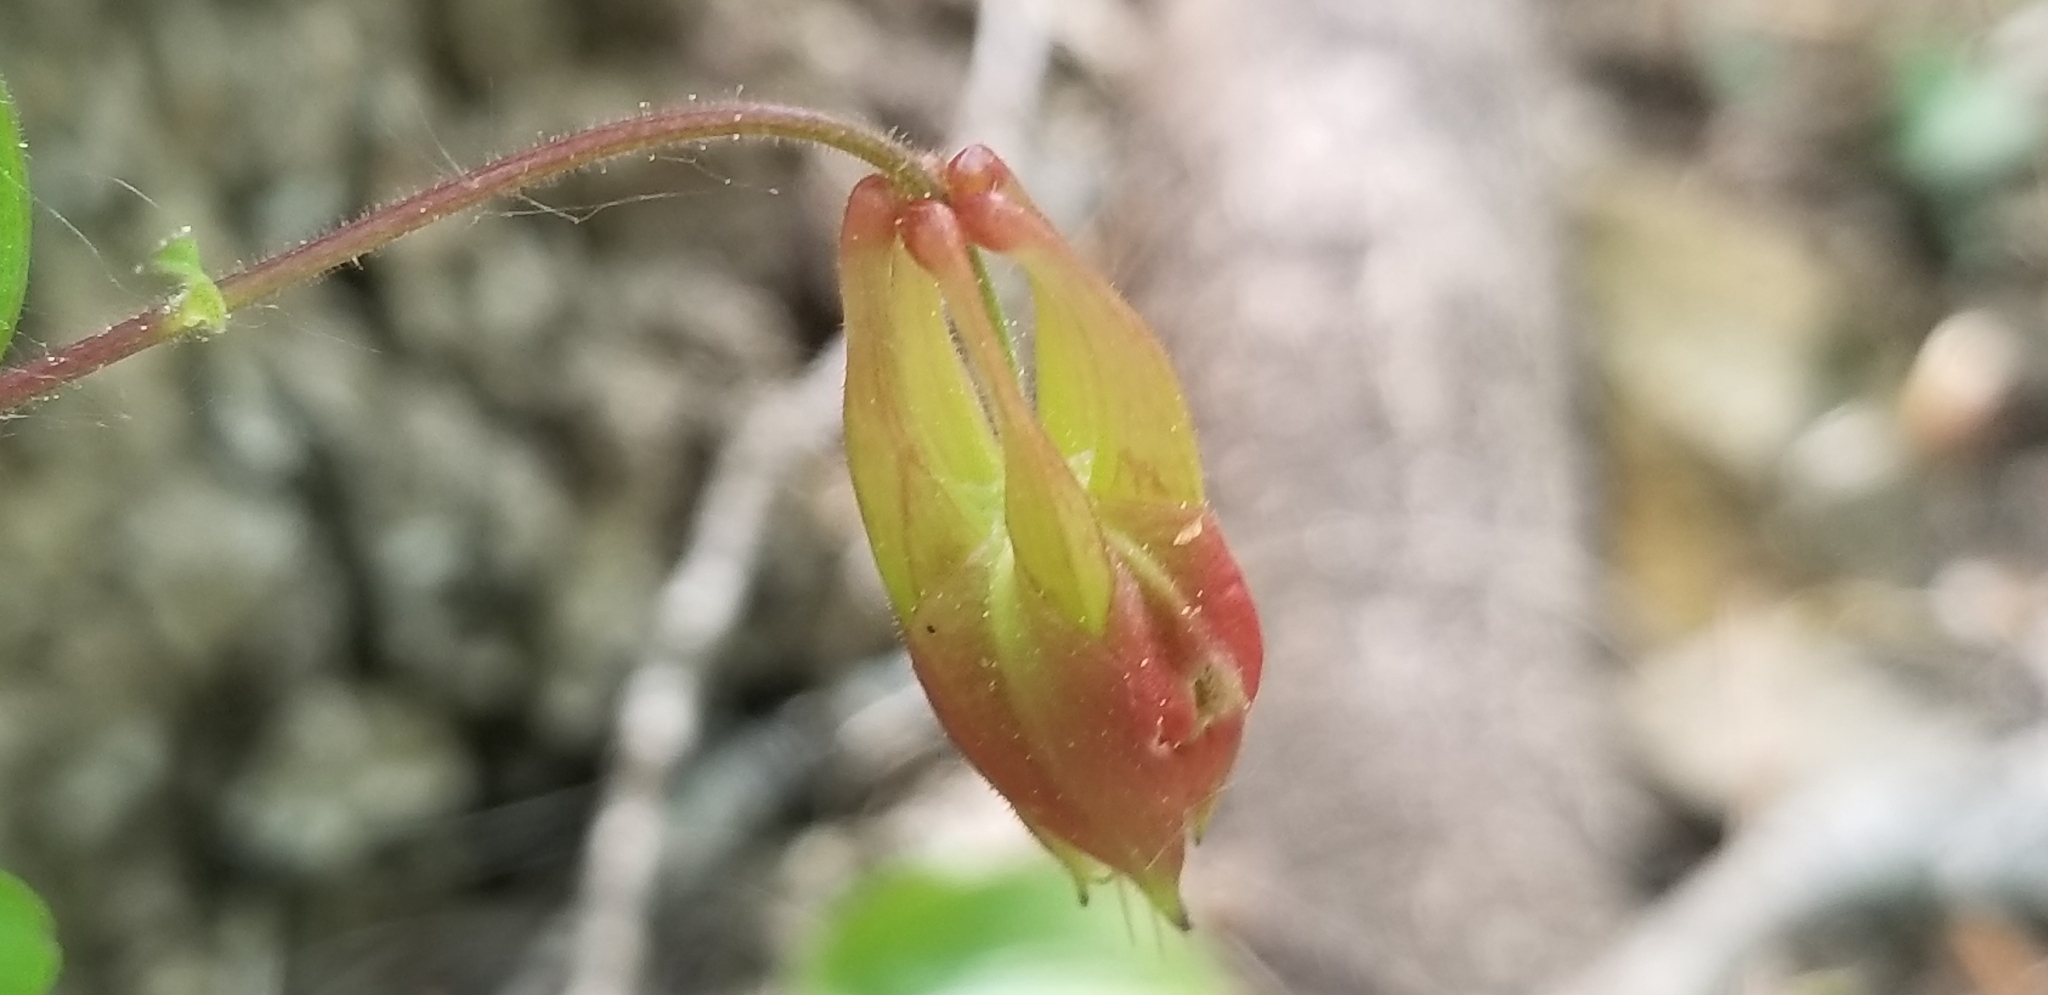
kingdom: Plantae
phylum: Tracheophyta
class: Magnoliopsida
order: Ranunculales
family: Ranunculaceae
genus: Aquilegia
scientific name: Aquilegia canadensis
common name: American columbine
